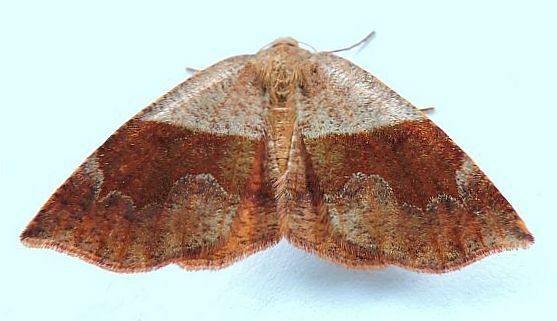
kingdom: Animalia
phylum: Arthropoda
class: Insecta
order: Lepidoptera
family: Geometridae
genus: Plagodis
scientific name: Plagodis pulveraria
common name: Barred umber
